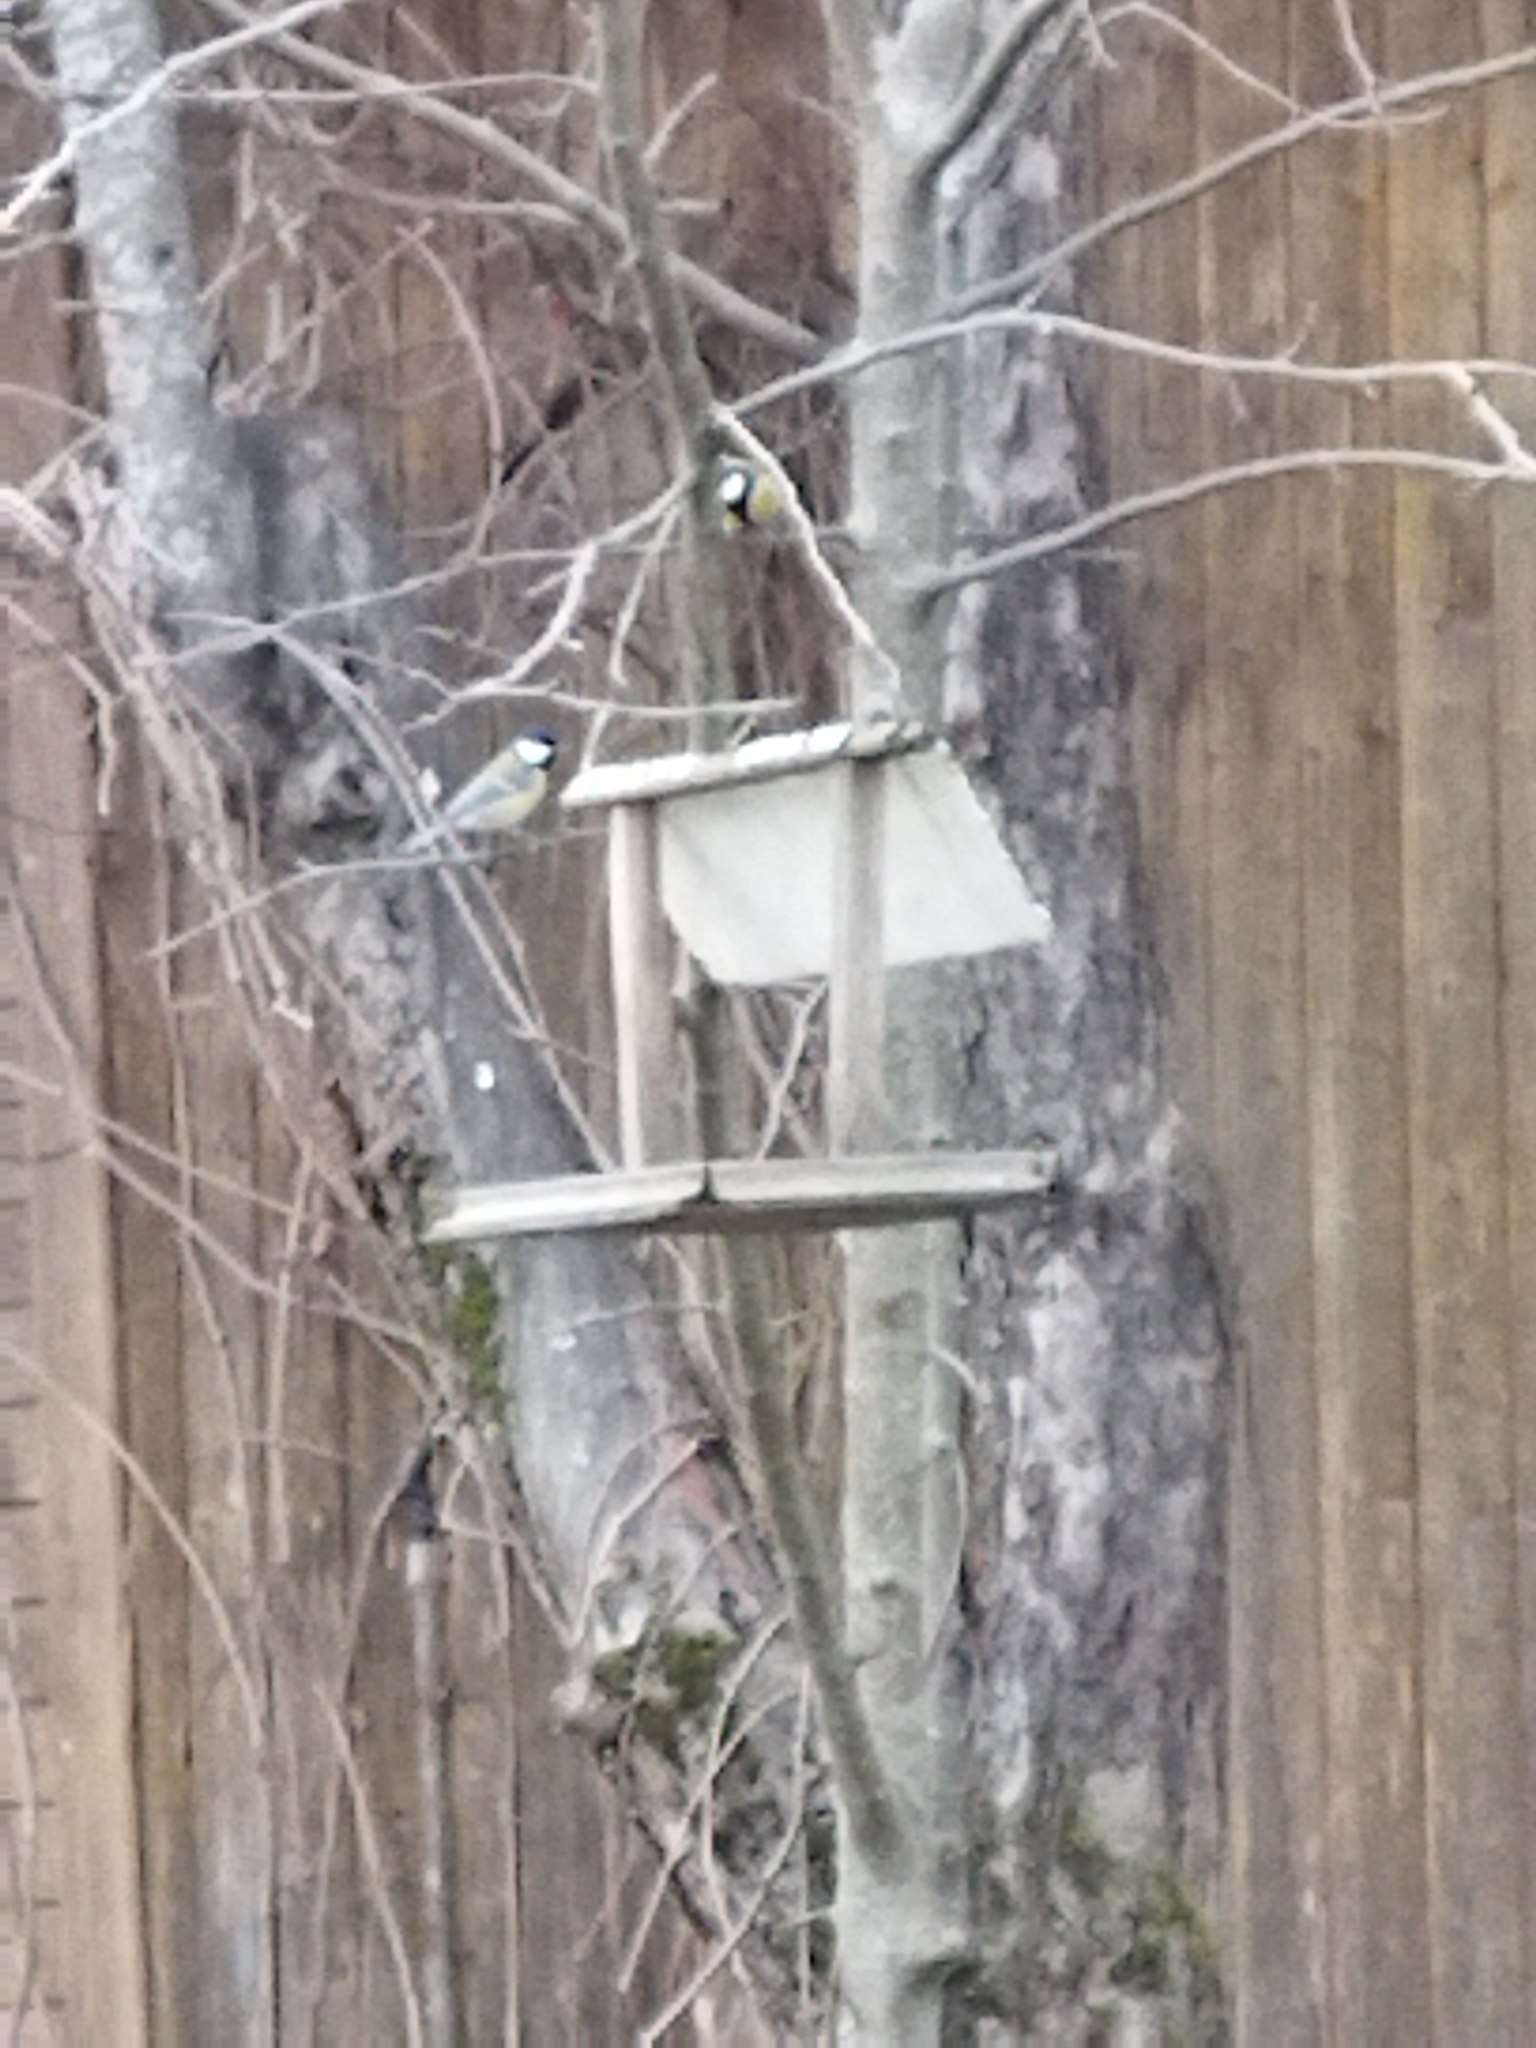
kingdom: Animalia
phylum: Chordata
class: Aves
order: Passeriformes
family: Paridae
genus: Parus
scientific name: Parus major
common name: Great tit
